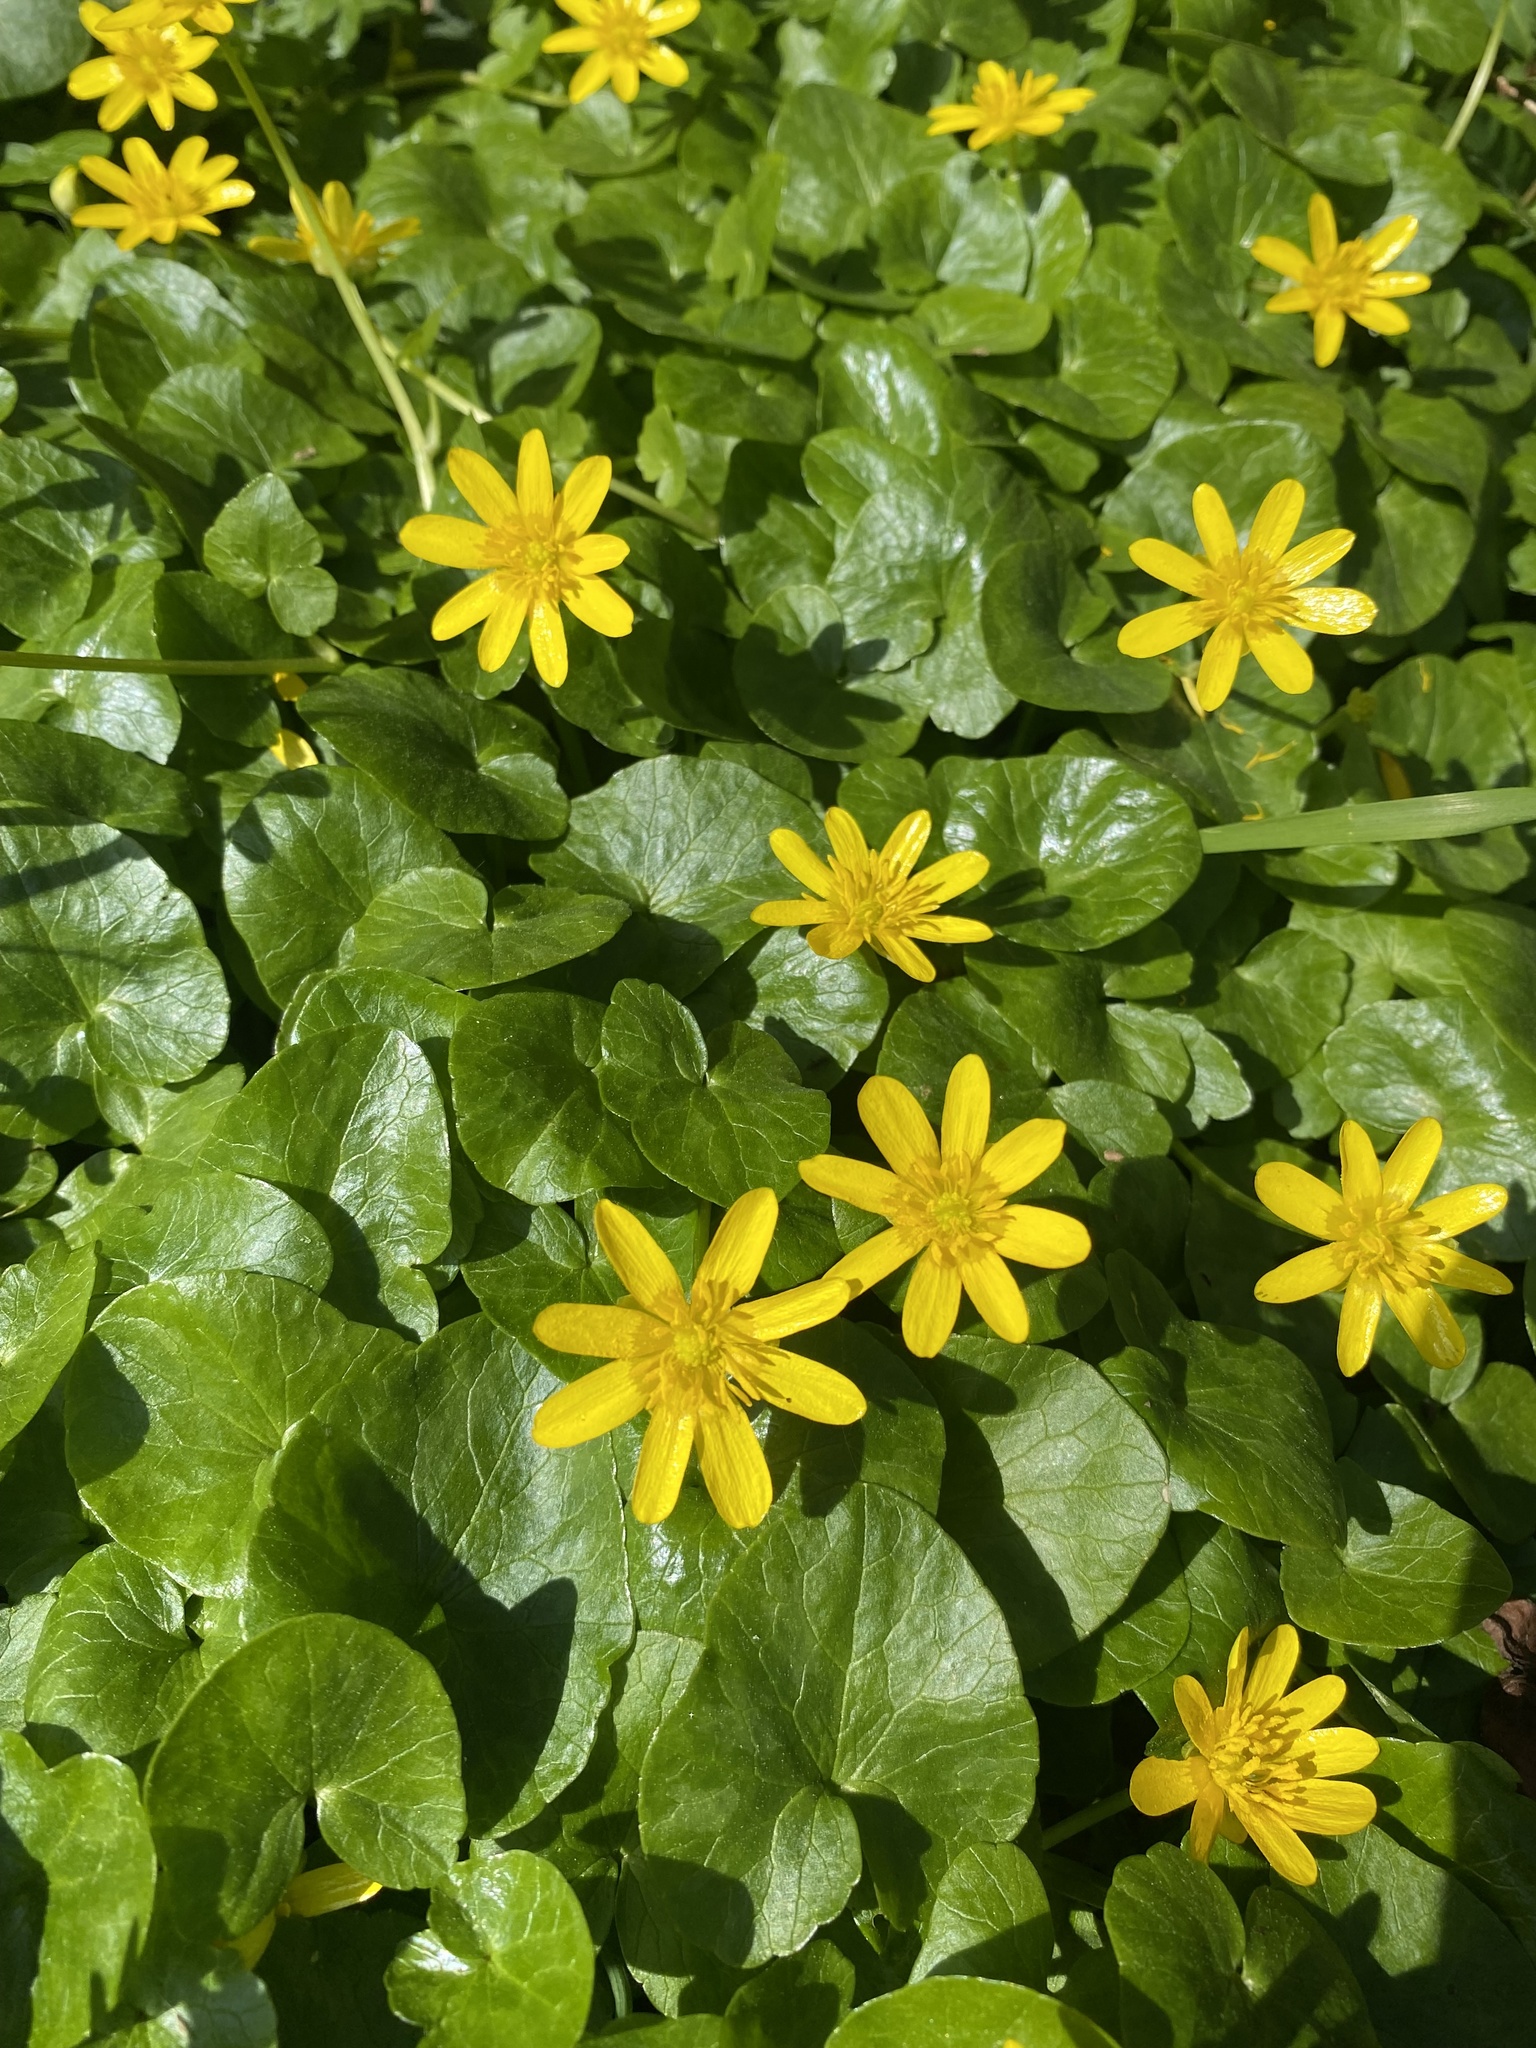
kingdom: Plantae
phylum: Tracheophyta
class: Magnoliopsida
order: Ranunculales
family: Ranunculaceae
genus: Ficaria
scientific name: Ficaria verna
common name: Lesser celandine
